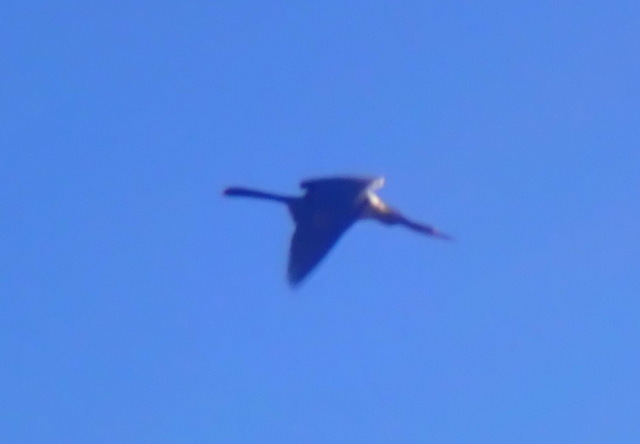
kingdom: Animalia
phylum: Chordata
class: Aves
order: Suliformes
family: Anhingidae
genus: Anhinga
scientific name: Anhinga anhinga
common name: Anhinga
